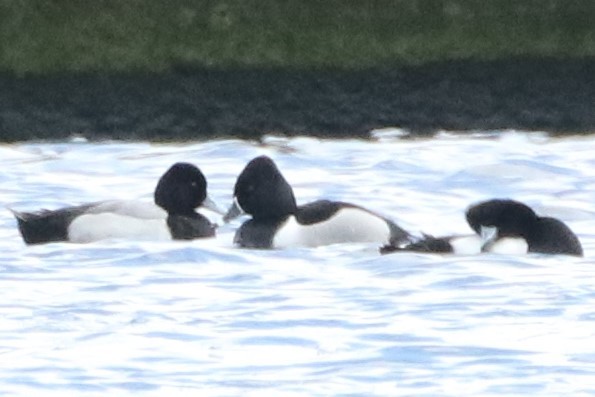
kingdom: Animalia
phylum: Chordata
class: Aves
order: Anseriformes
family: Anatidae
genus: Aythya
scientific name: Aythya collaris
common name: Ring-necked duck
